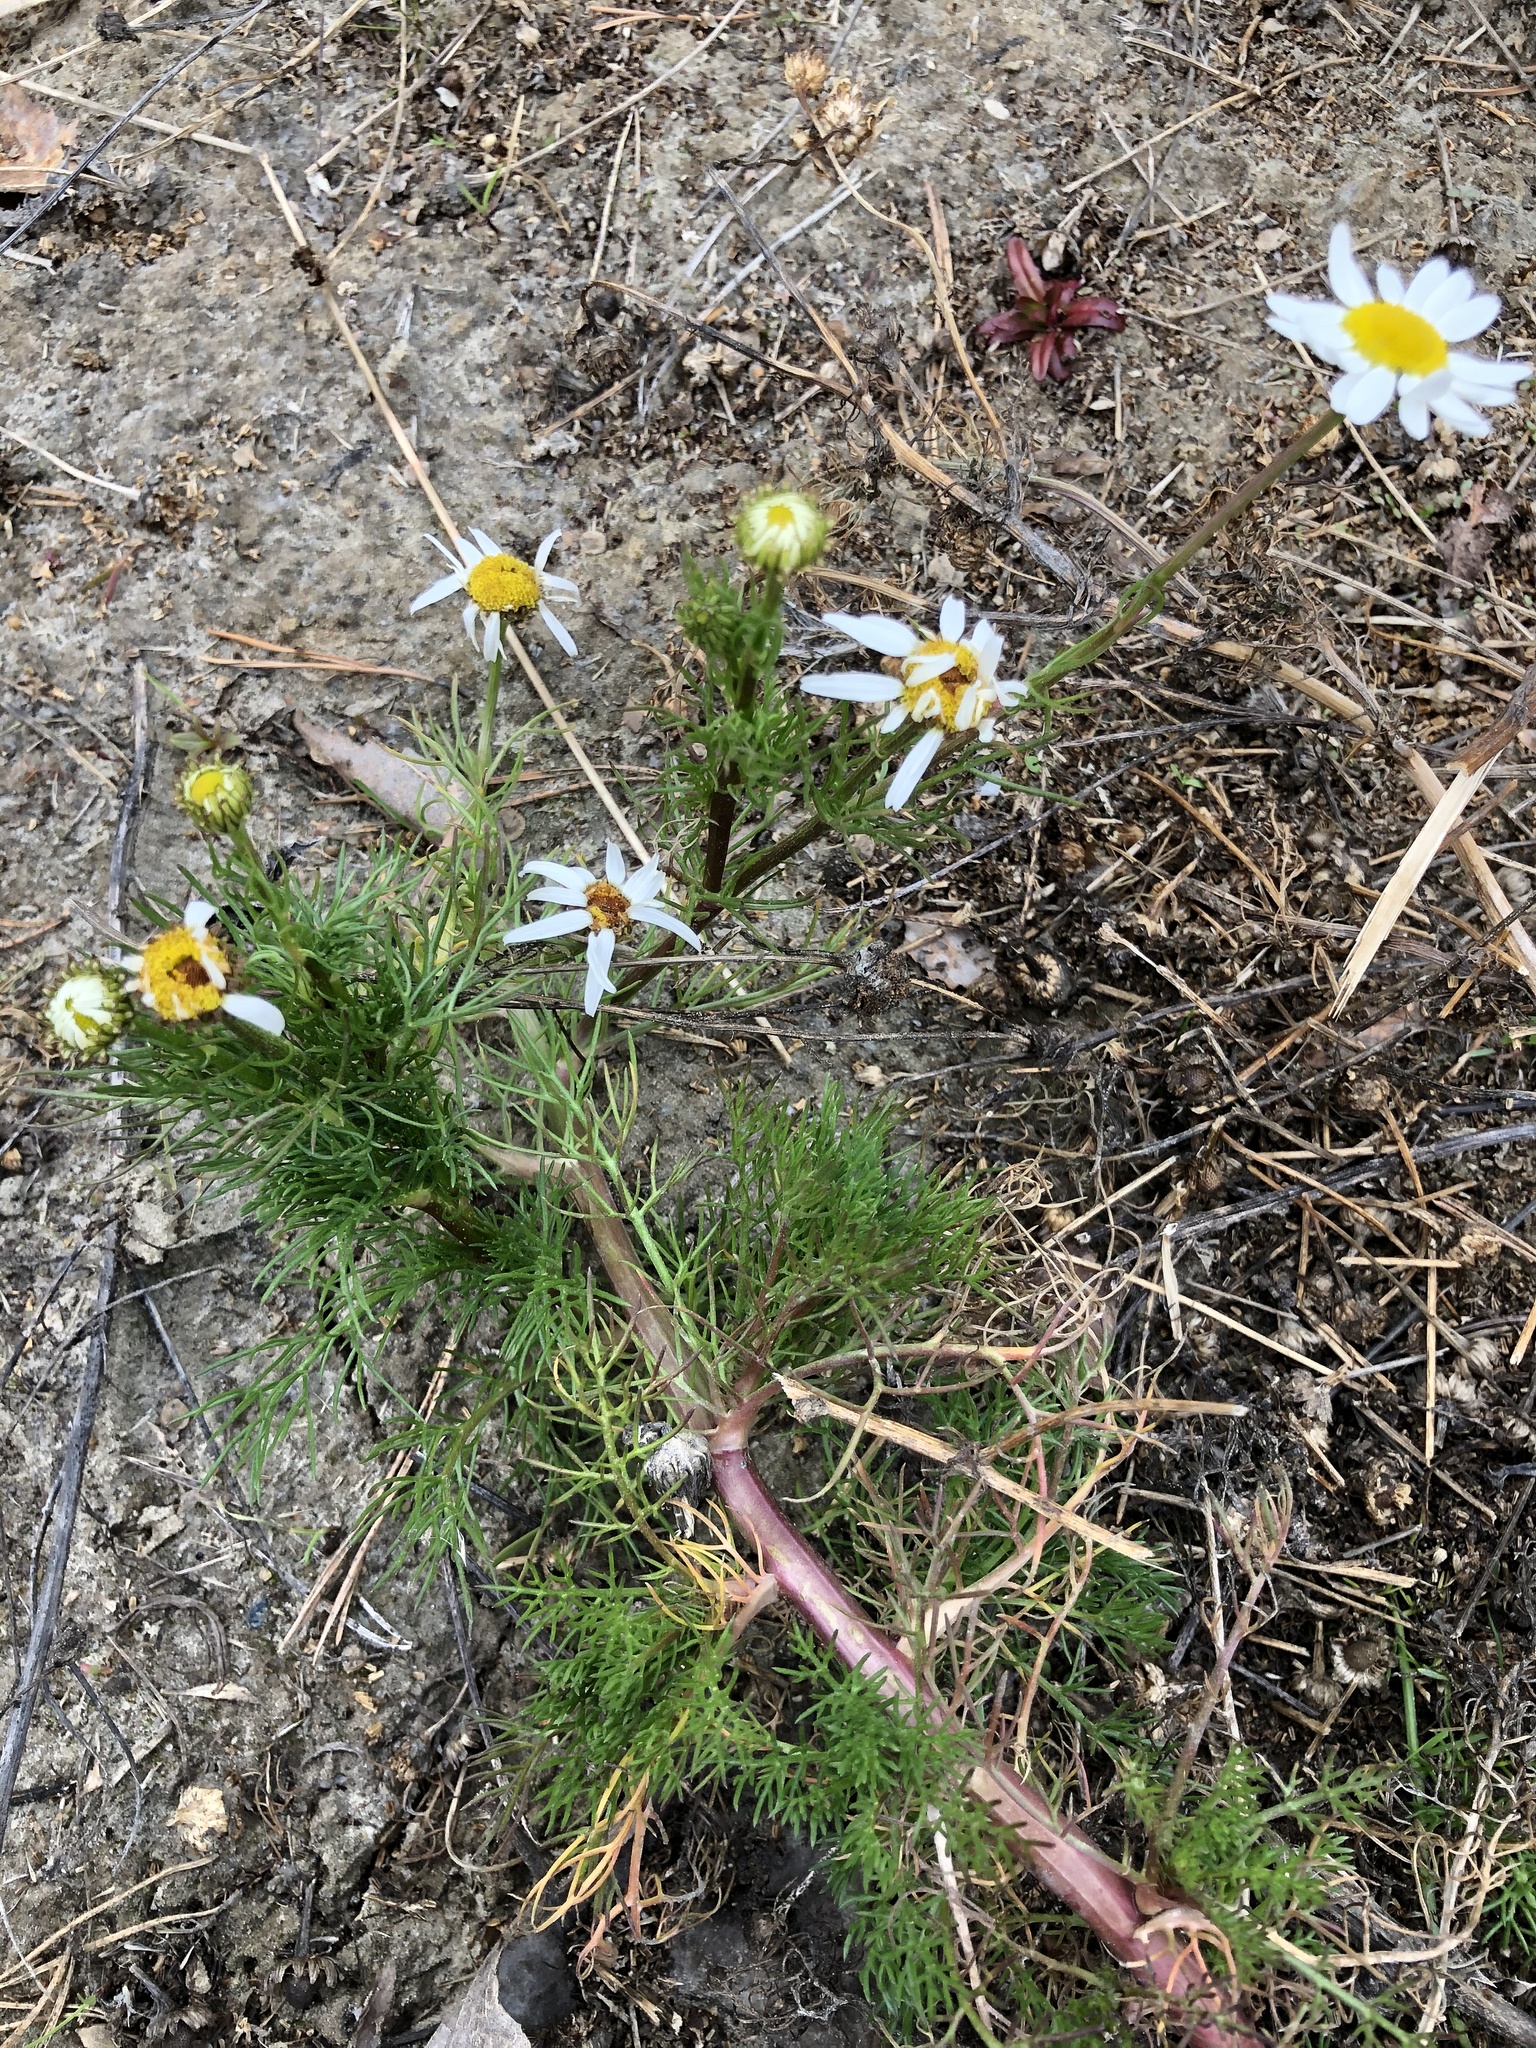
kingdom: Plantae
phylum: Tracheophyta
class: Magnoliopsida
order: Asterales
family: Asteraceae
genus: Tripleurospermum
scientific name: Tripleurospermum inodorum
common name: Scentless mayweed
